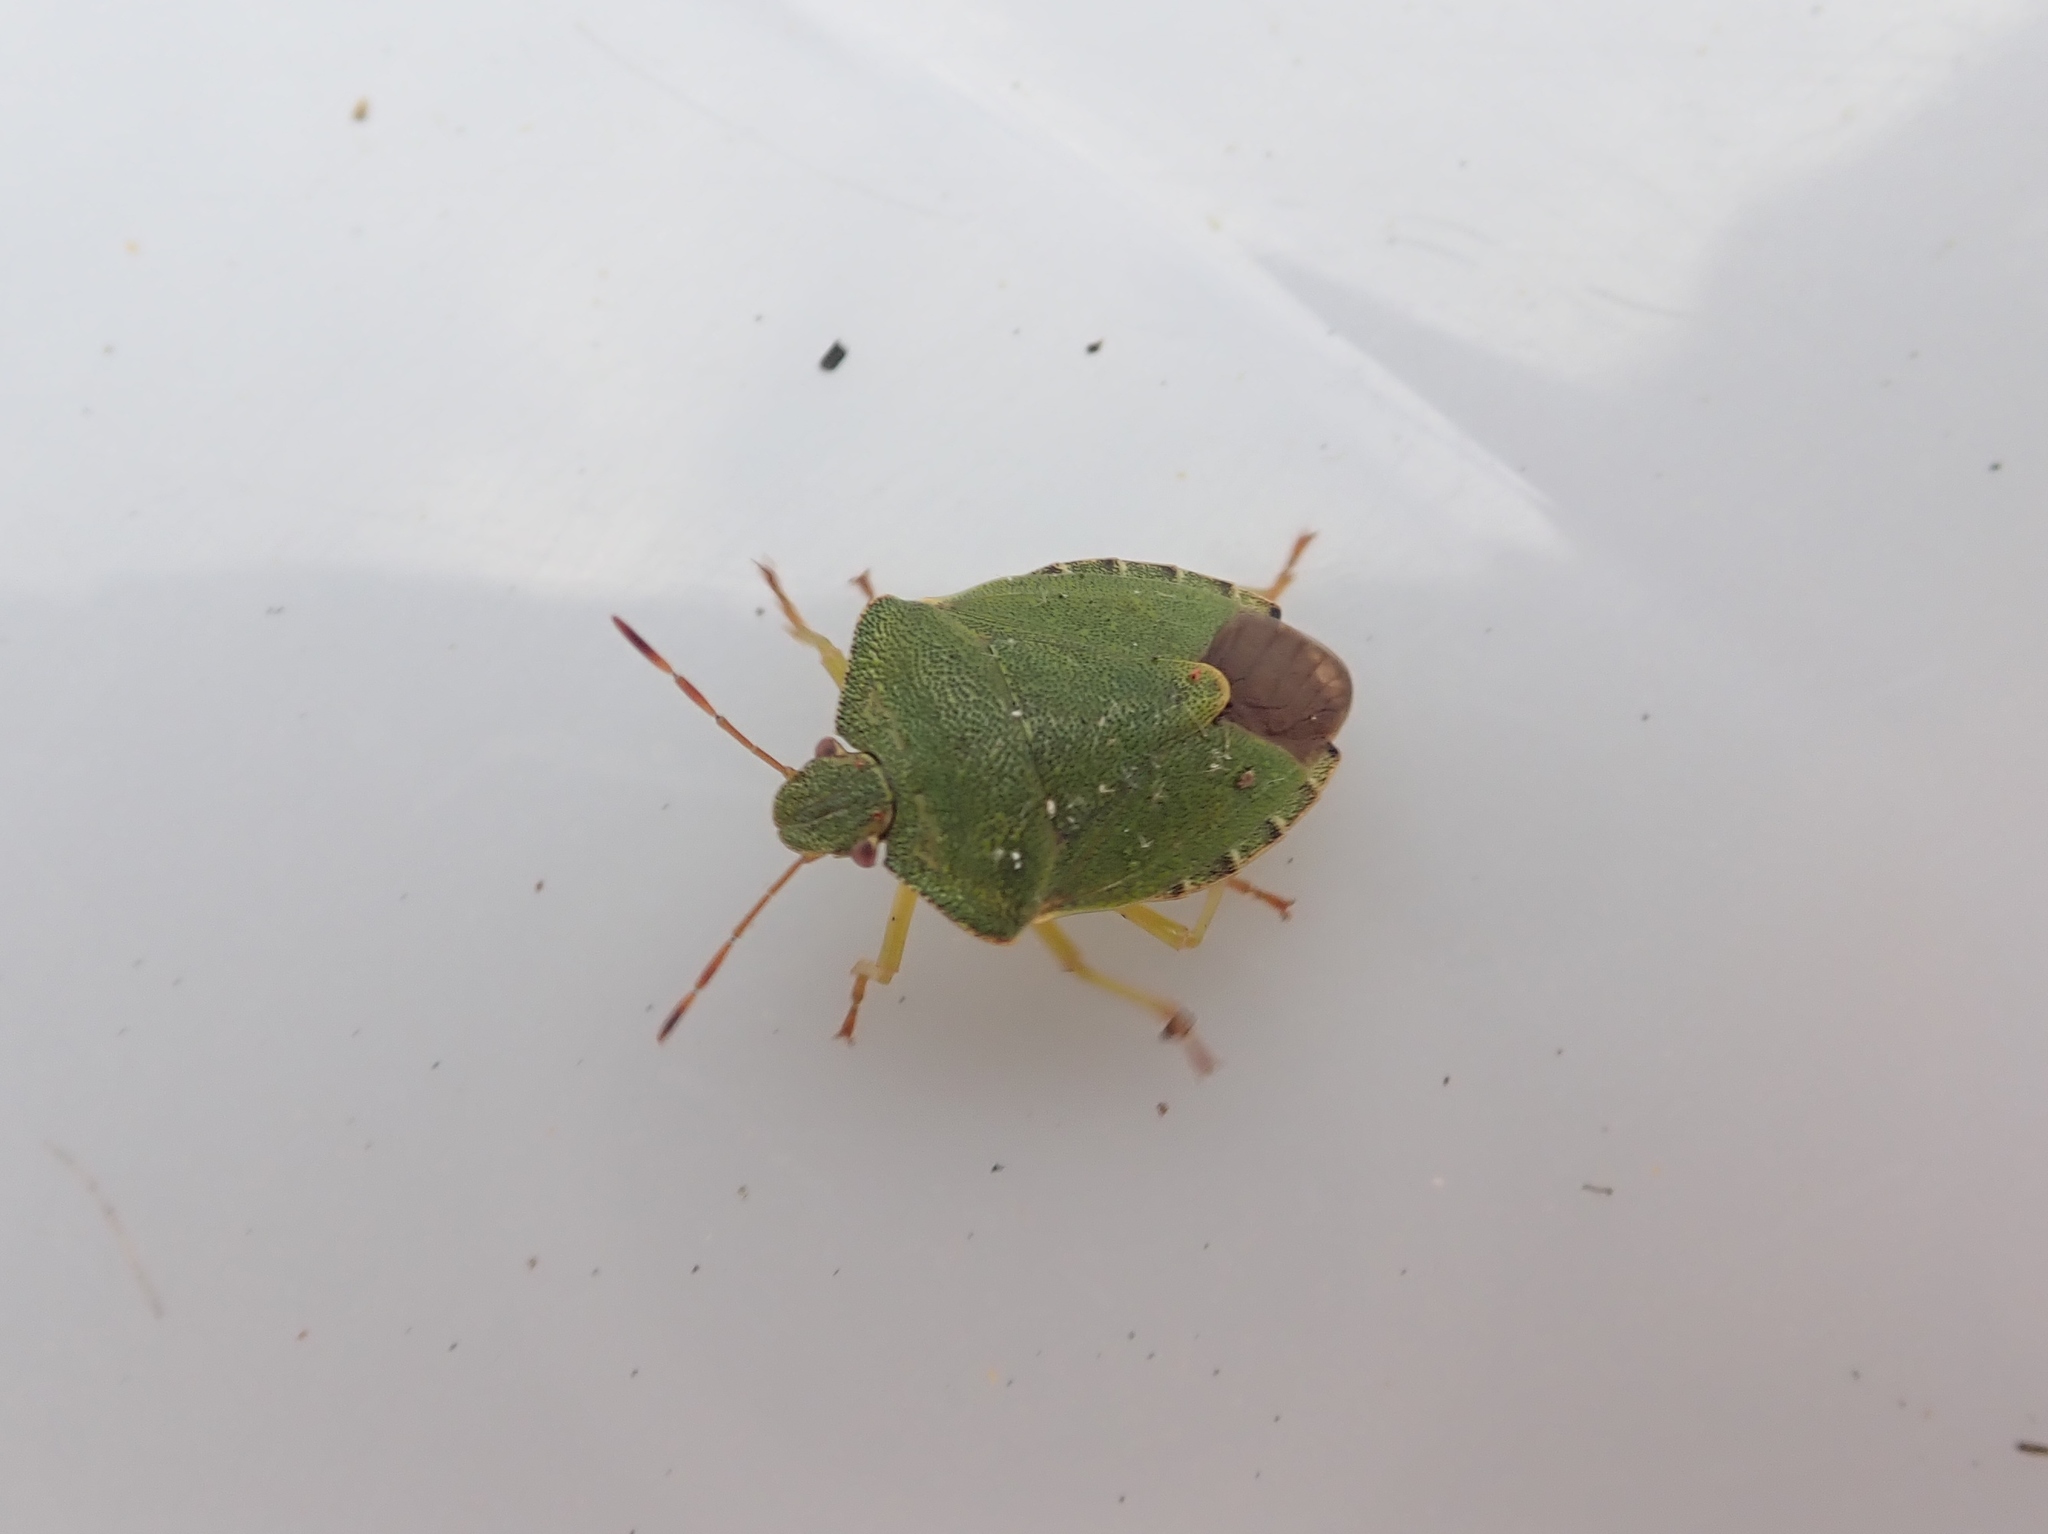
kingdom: Animalia
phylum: Arthropoda
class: Insecta
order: Hemiptera
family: Pentatomidae
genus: Palomena
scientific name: Palomena prasina
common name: Green shieldbug
